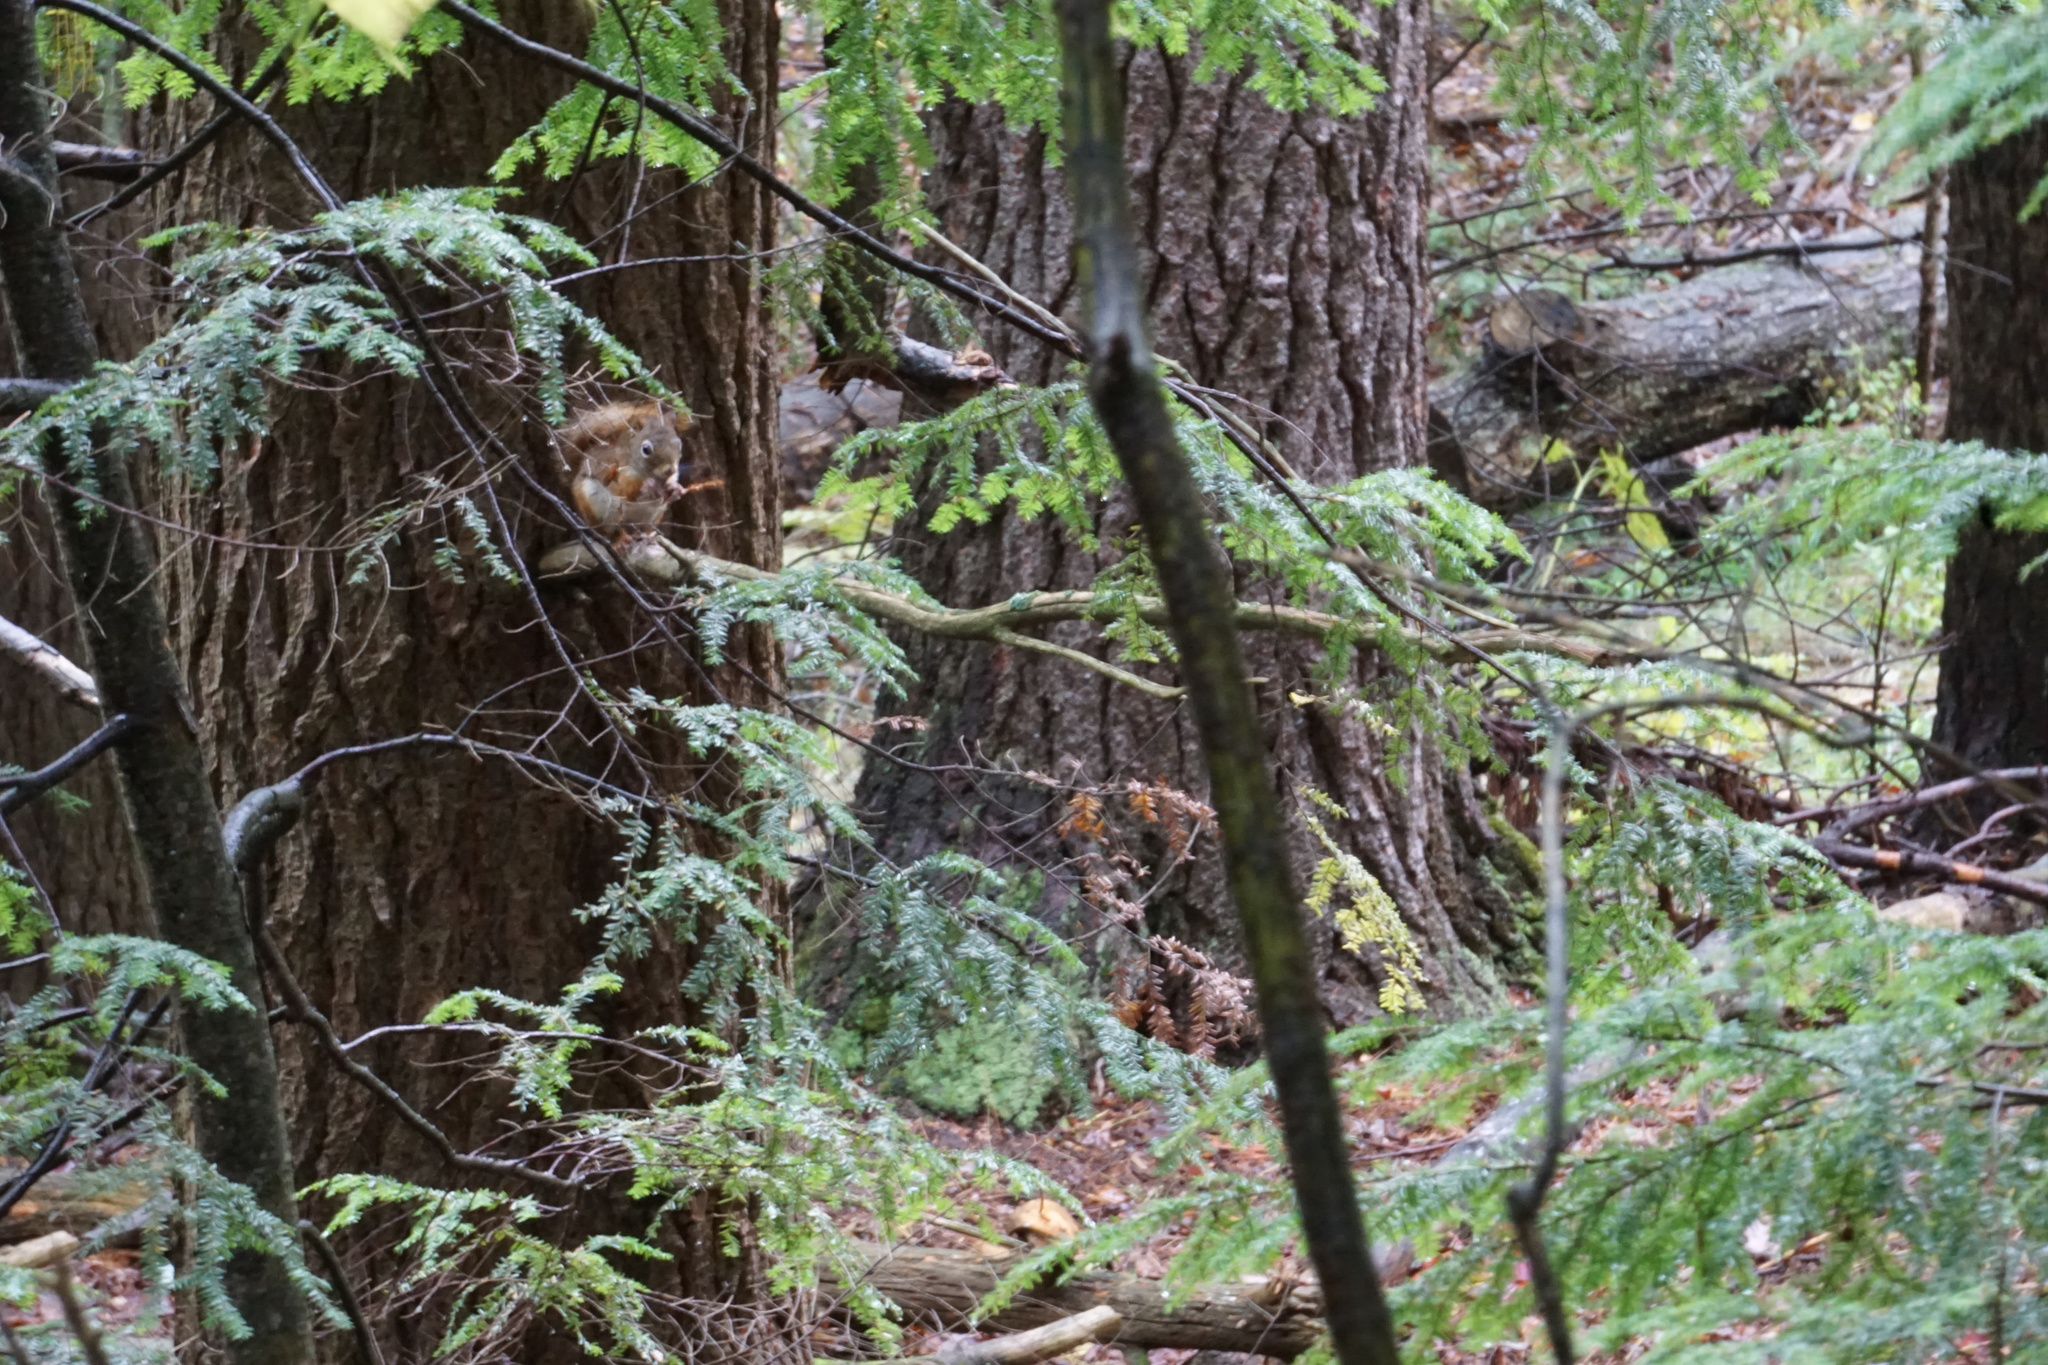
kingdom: Animalia
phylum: Chordata
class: Mammalia
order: Rodentia
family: Sciuridae
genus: Tamiasciurus
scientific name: Tamiasciurus hudsonicus
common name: Red squirrel
